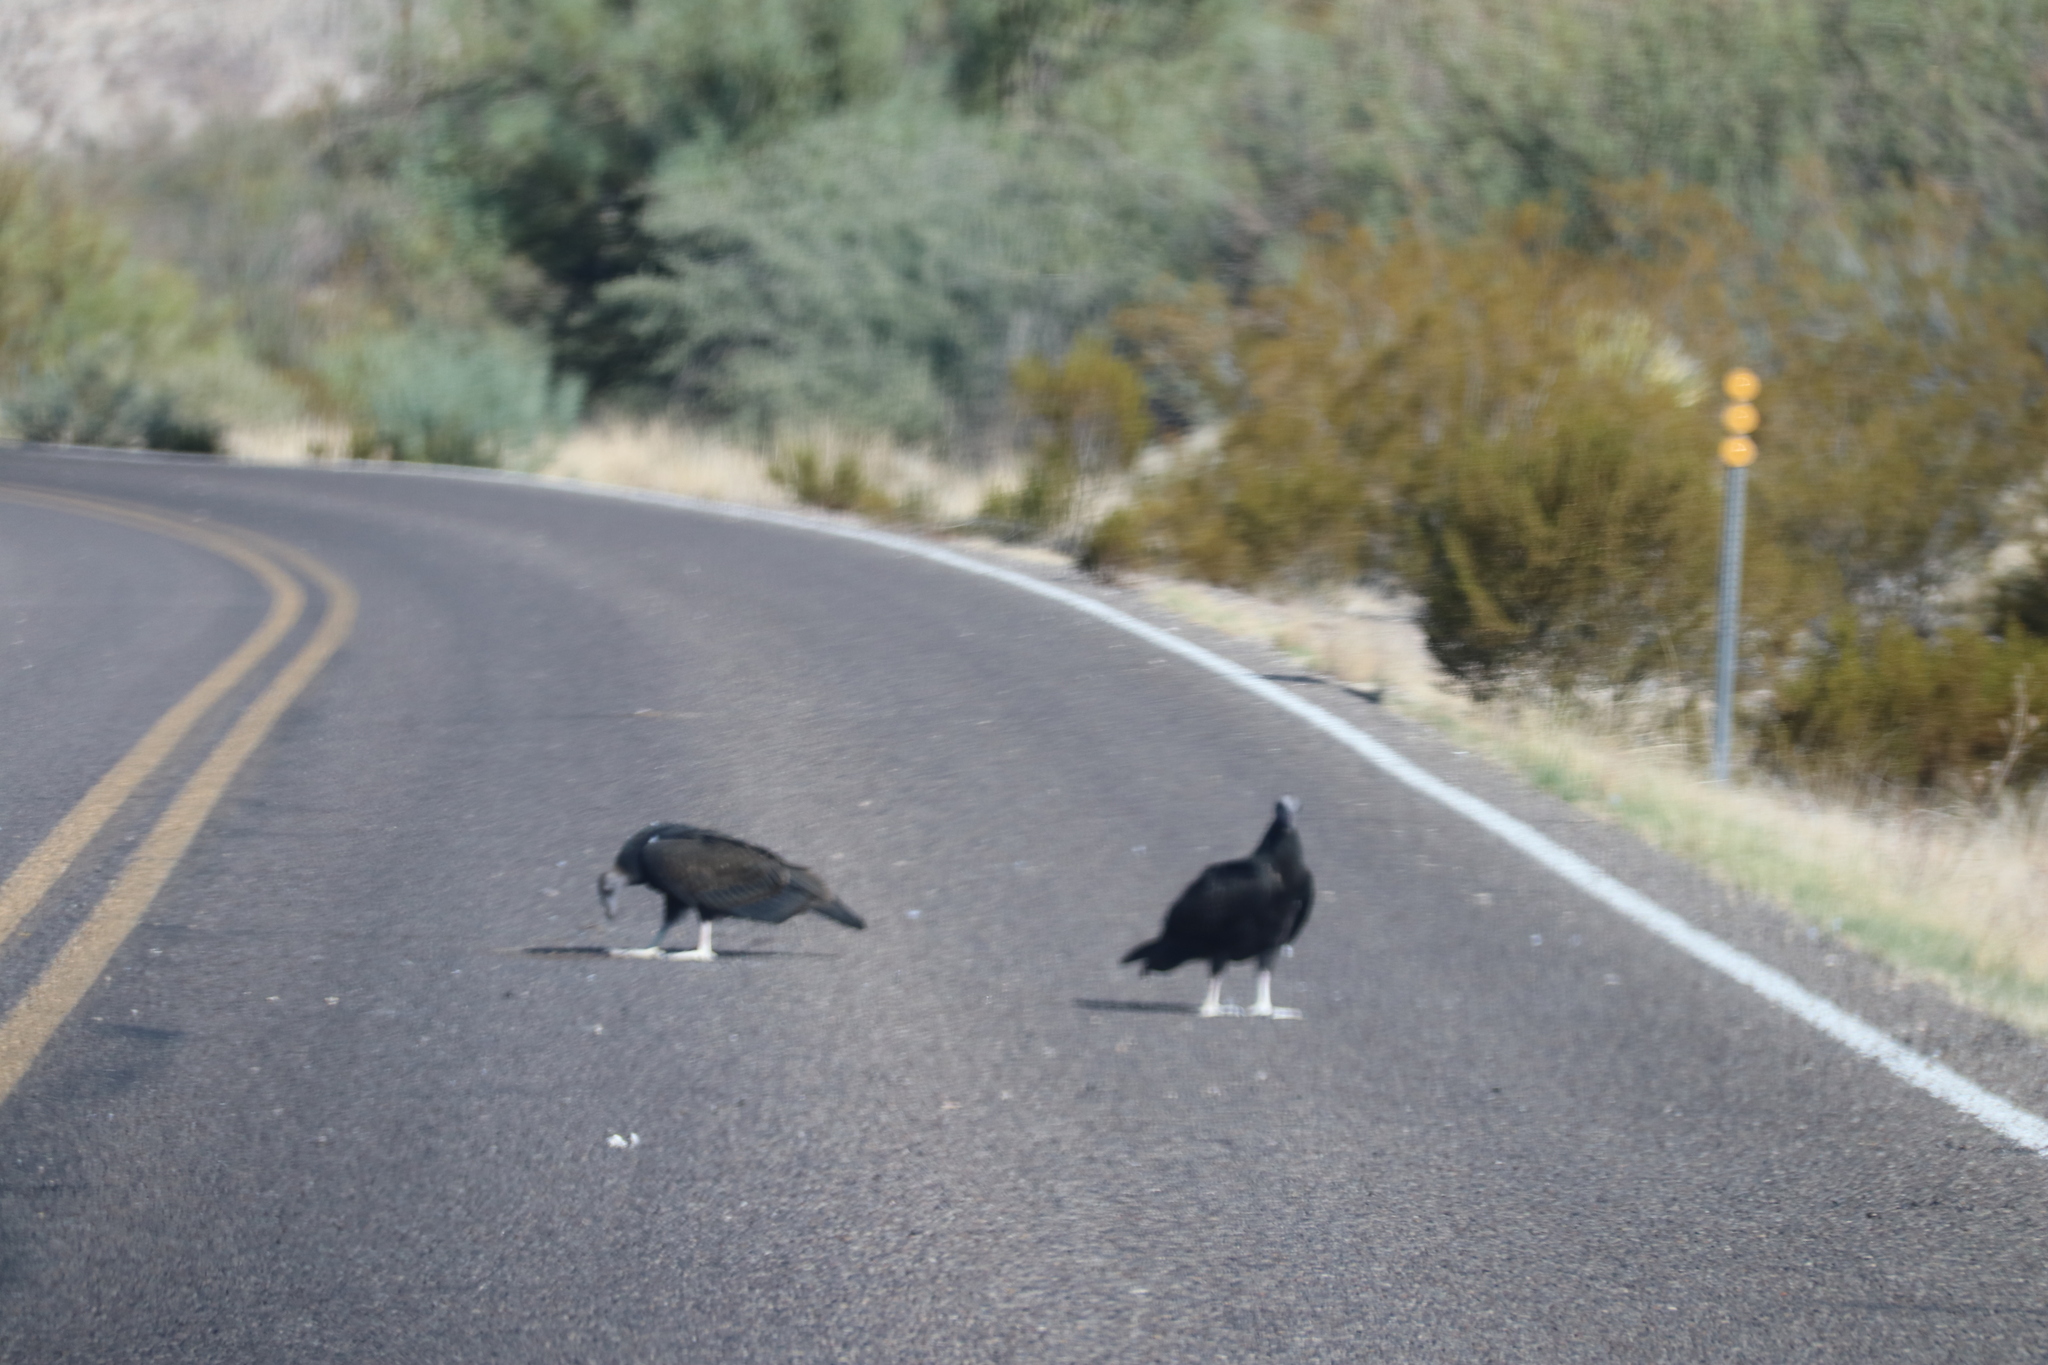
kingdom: Animalia
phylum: Chordata
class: Aves
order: Accipitriformes
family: Cathartidae
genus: Cathartes
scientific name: Cathartes aura
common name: Turkey vulture
